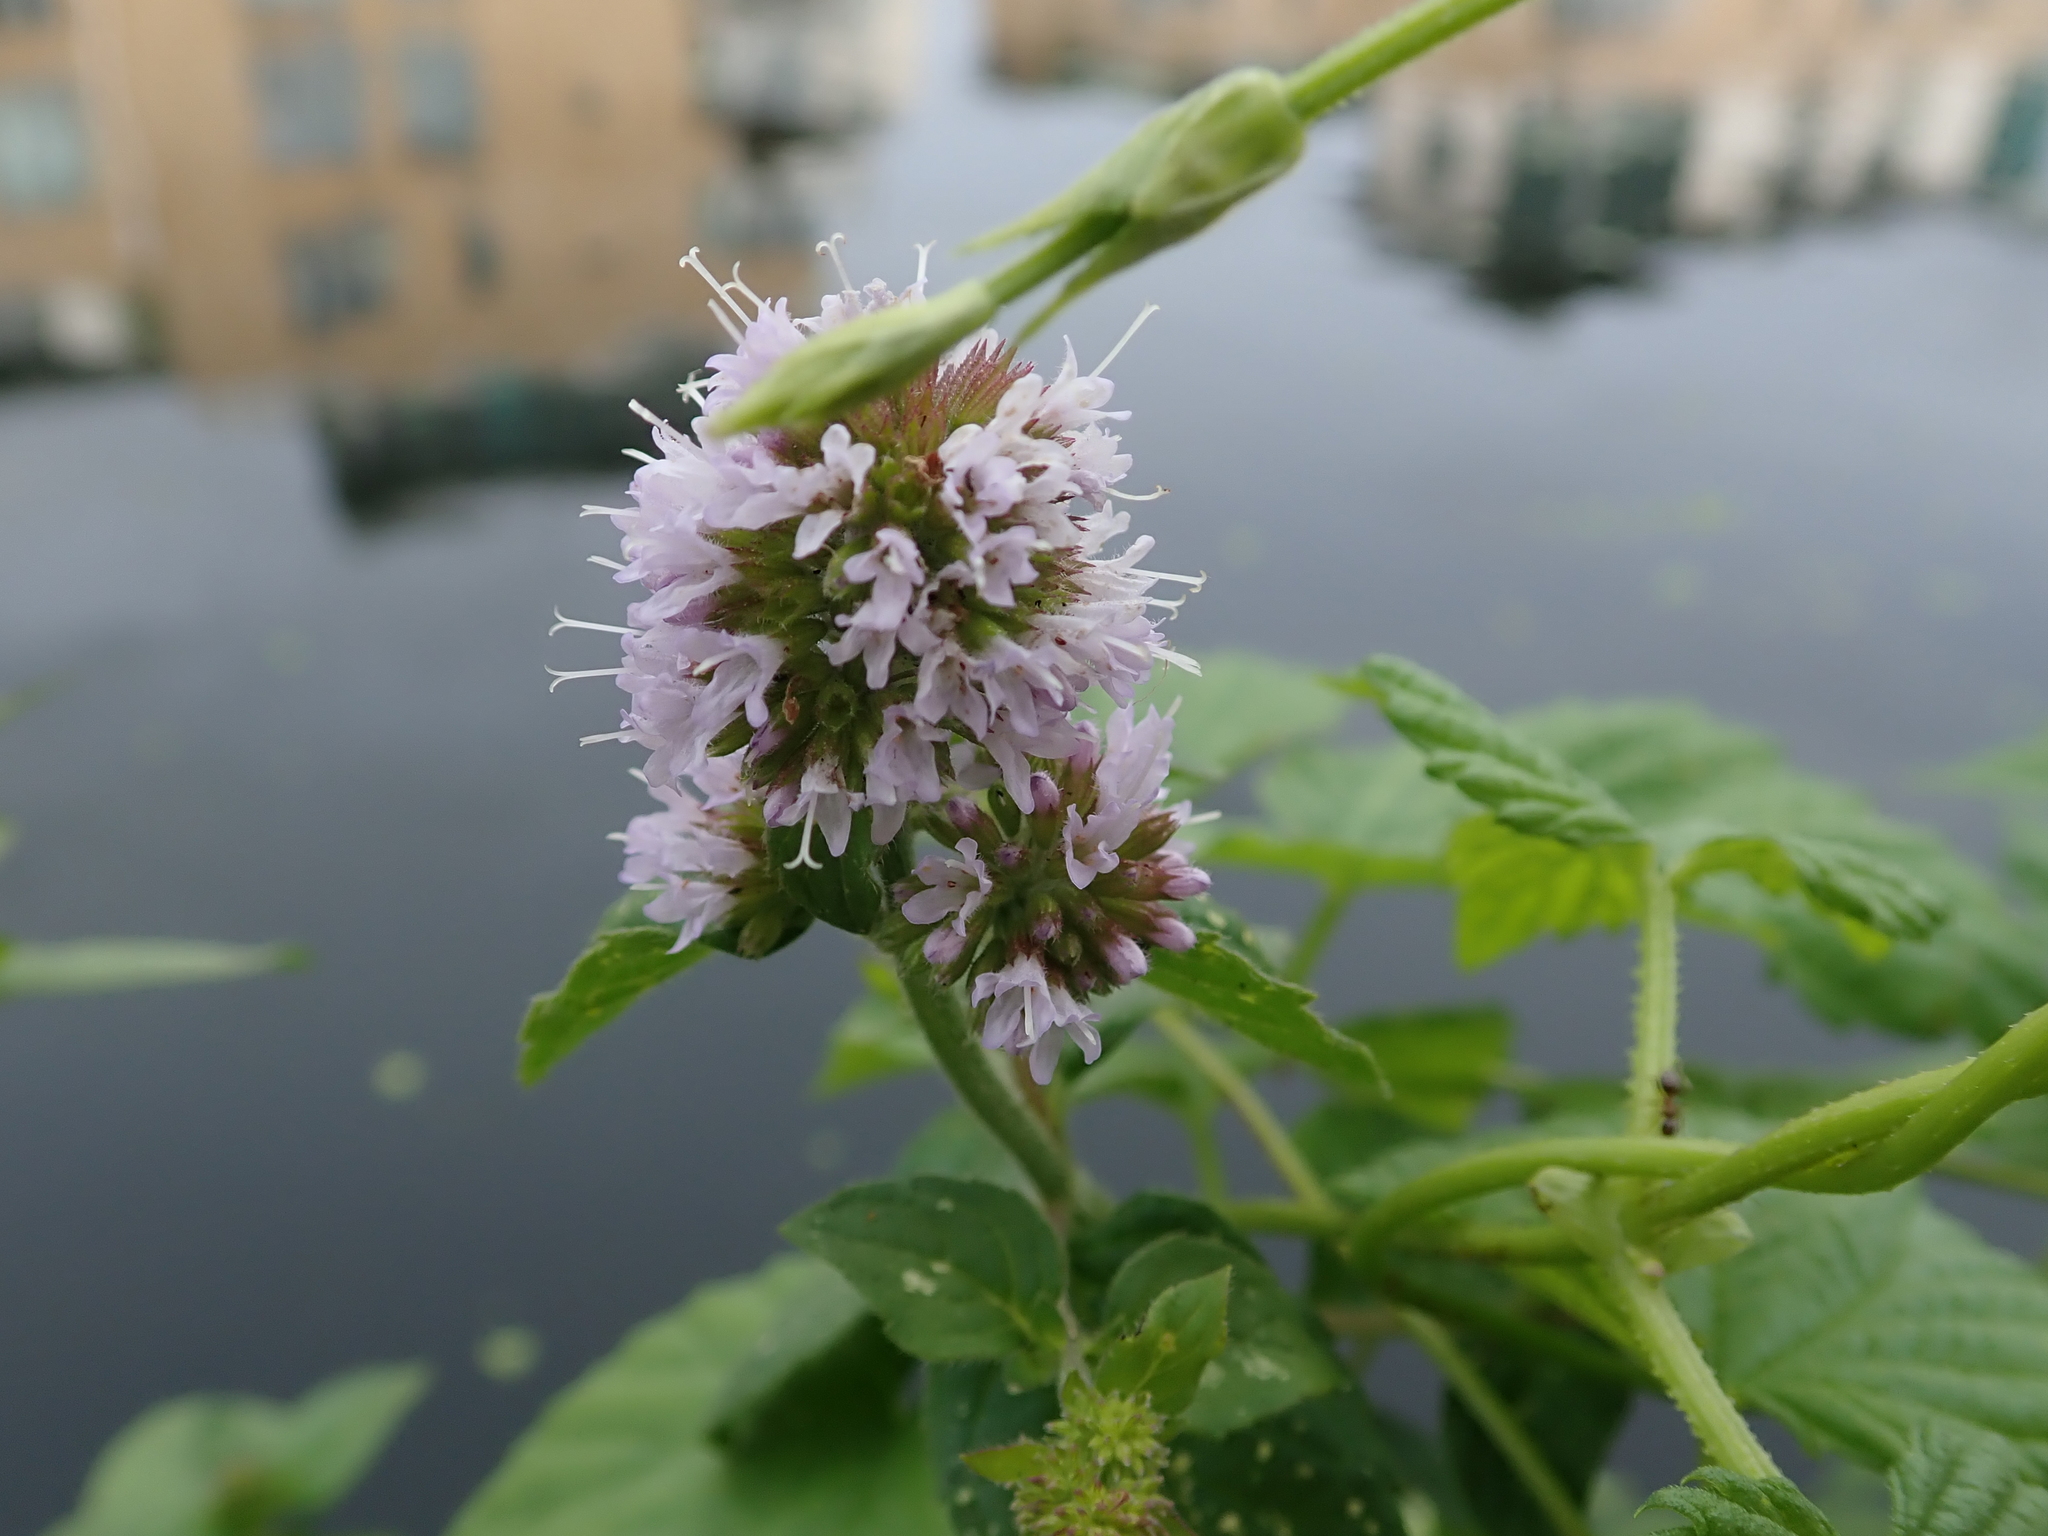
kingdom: Plantae
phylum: Tracheophyta
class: Magnoliopsida
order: Lamiales
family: Lamiaceae
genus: Mentha
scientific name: Mentha aquatica
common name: Water mint
